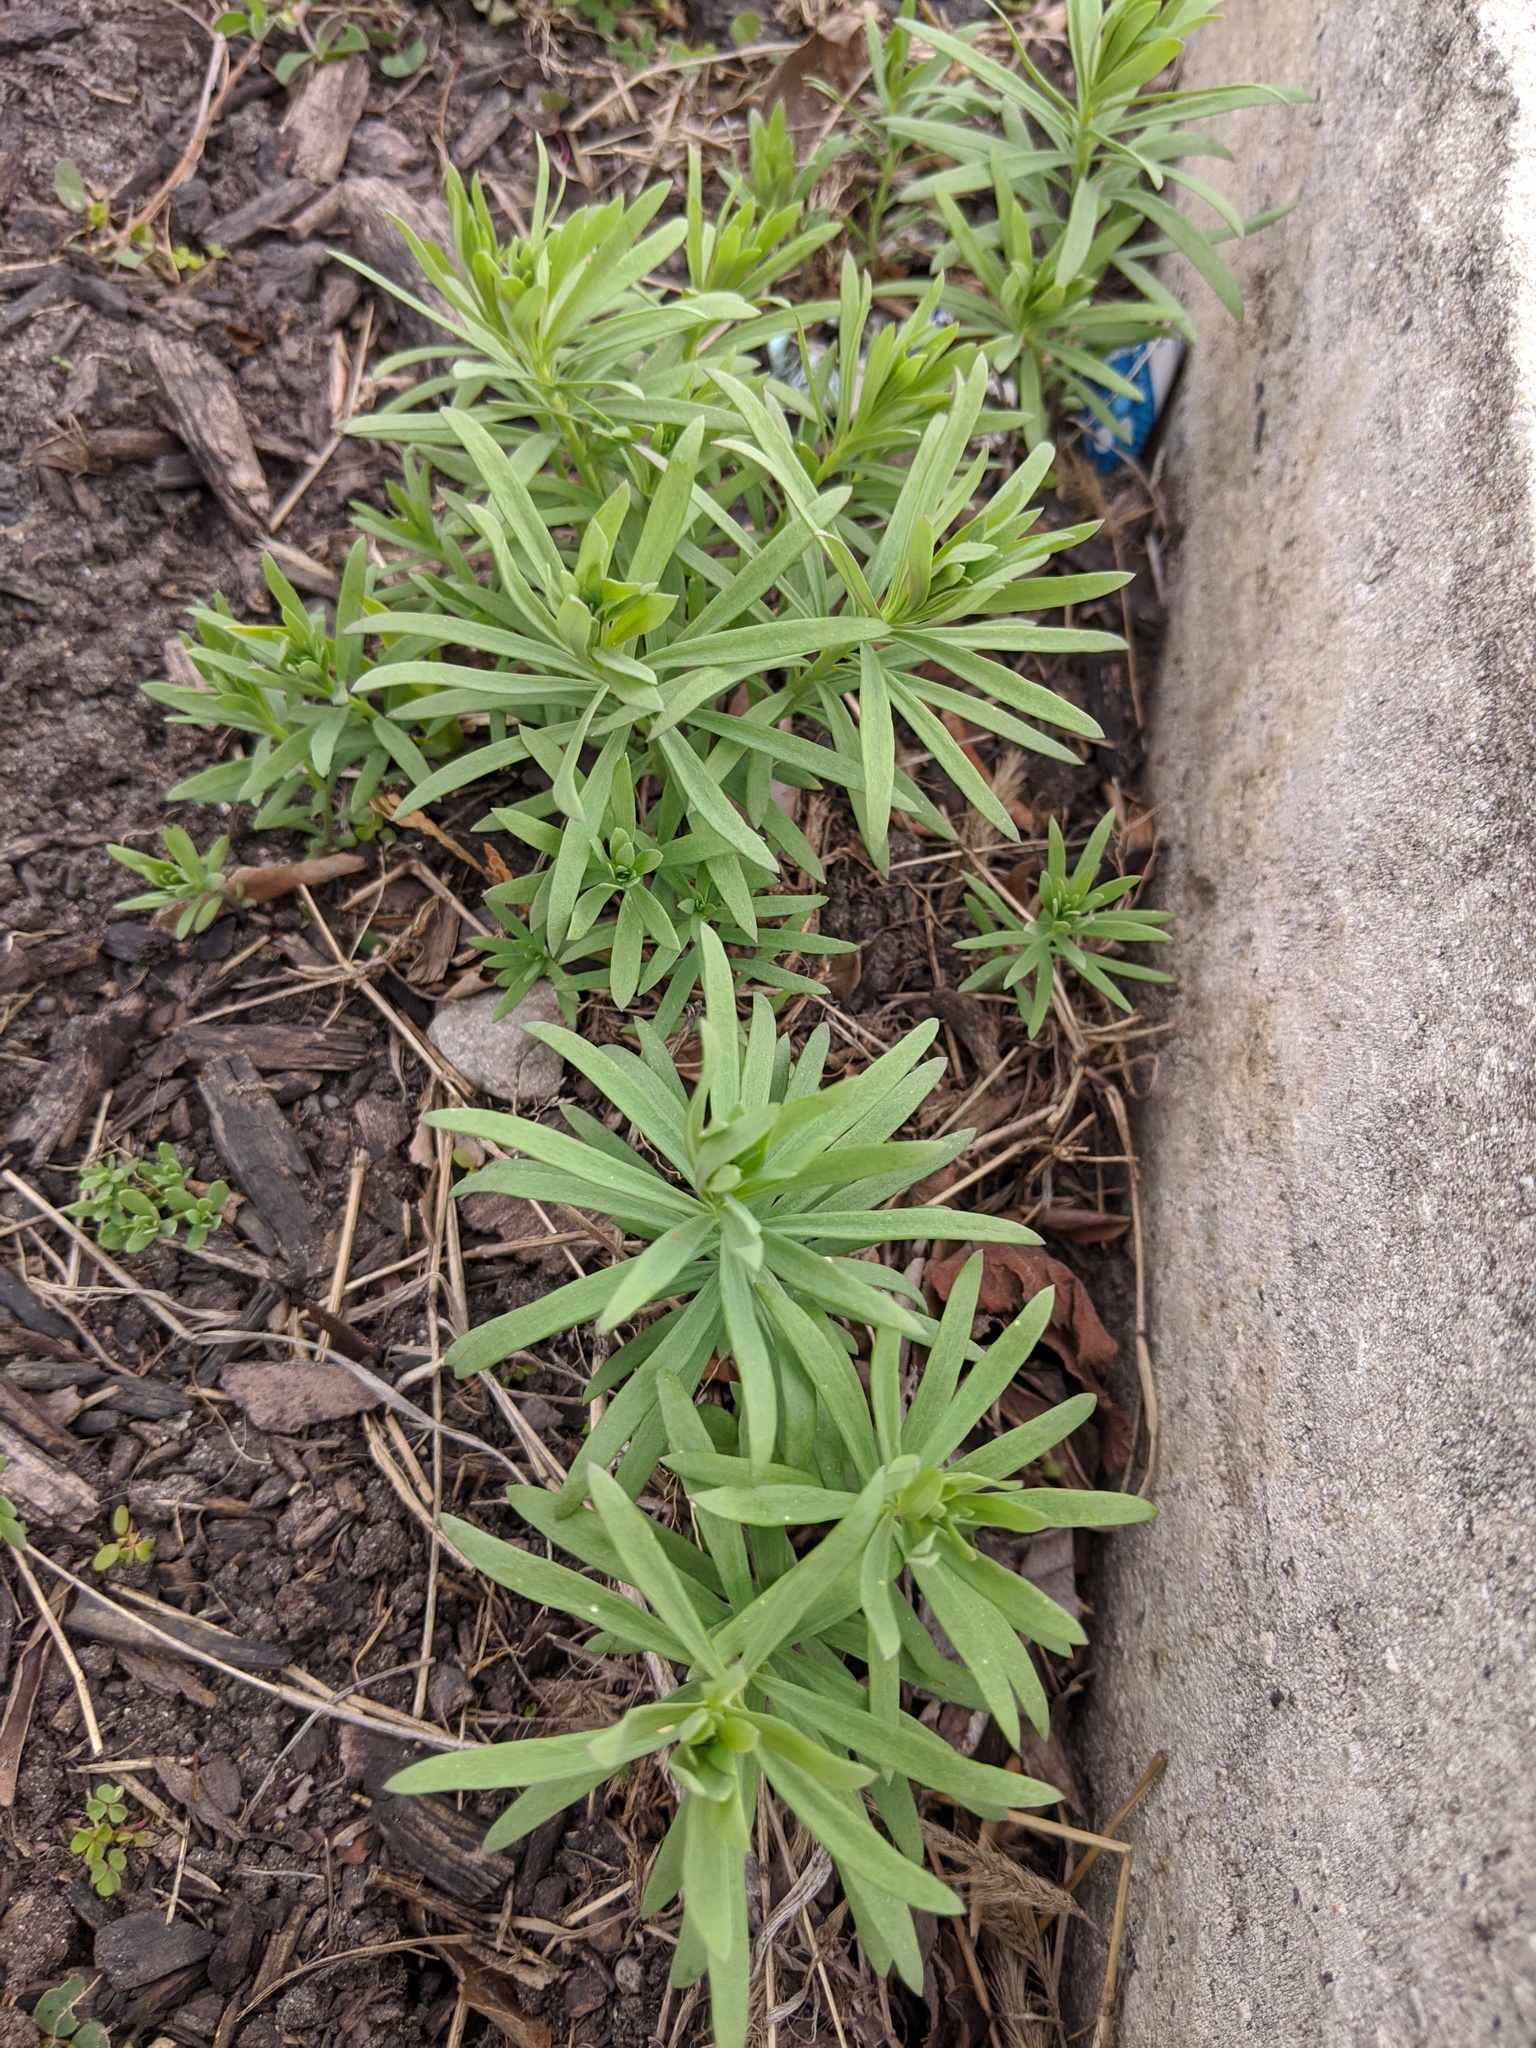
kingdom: Plantae
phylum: Tracheophyta
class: Magnoliopsida
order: Lamiales
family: Plantaginaceae
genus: Linaria
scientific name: Linaria vulgaris
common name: Butter and eggs
